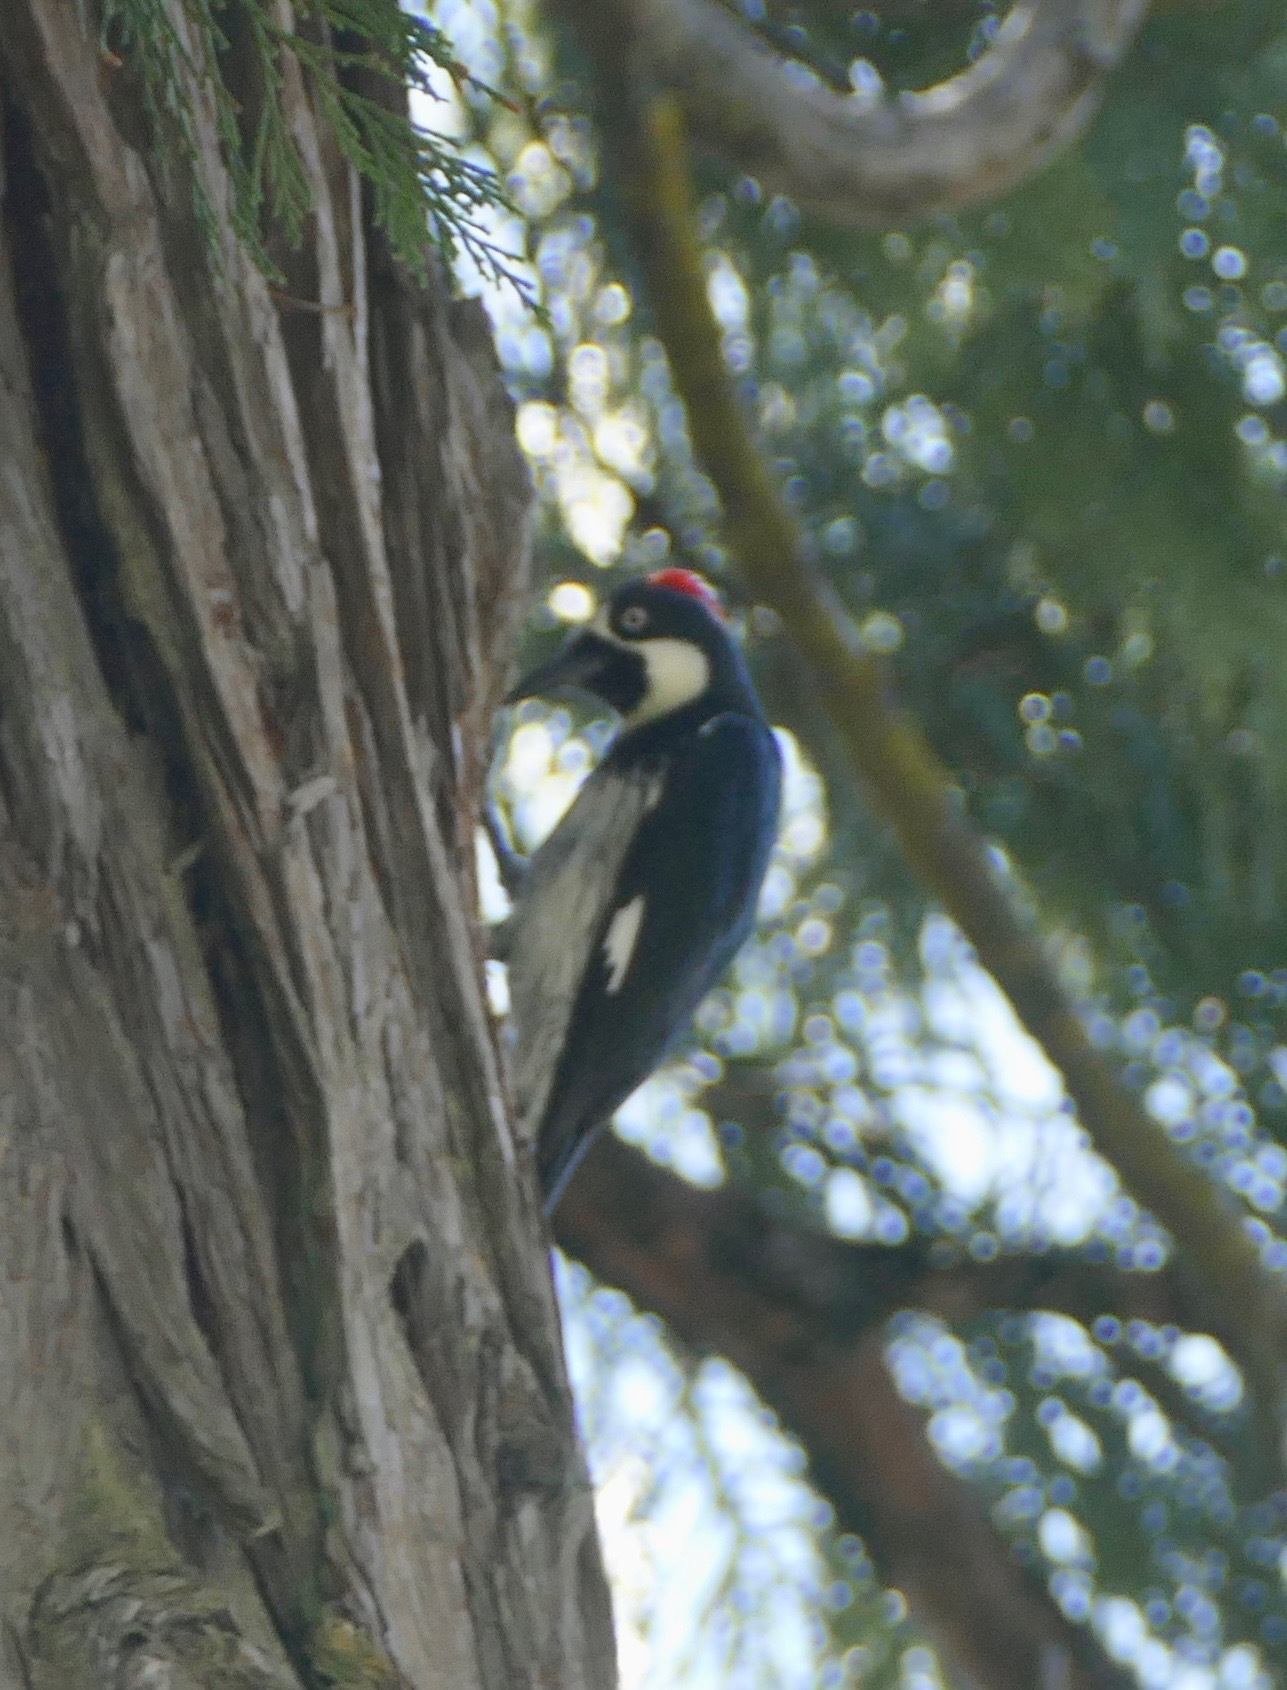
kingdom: Animalia
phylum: Chordata
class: Aves
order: Piciformes
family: Picidae
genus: Melanerpes
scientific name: Melanerpes formicivorus
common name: Acorn woodpecker
